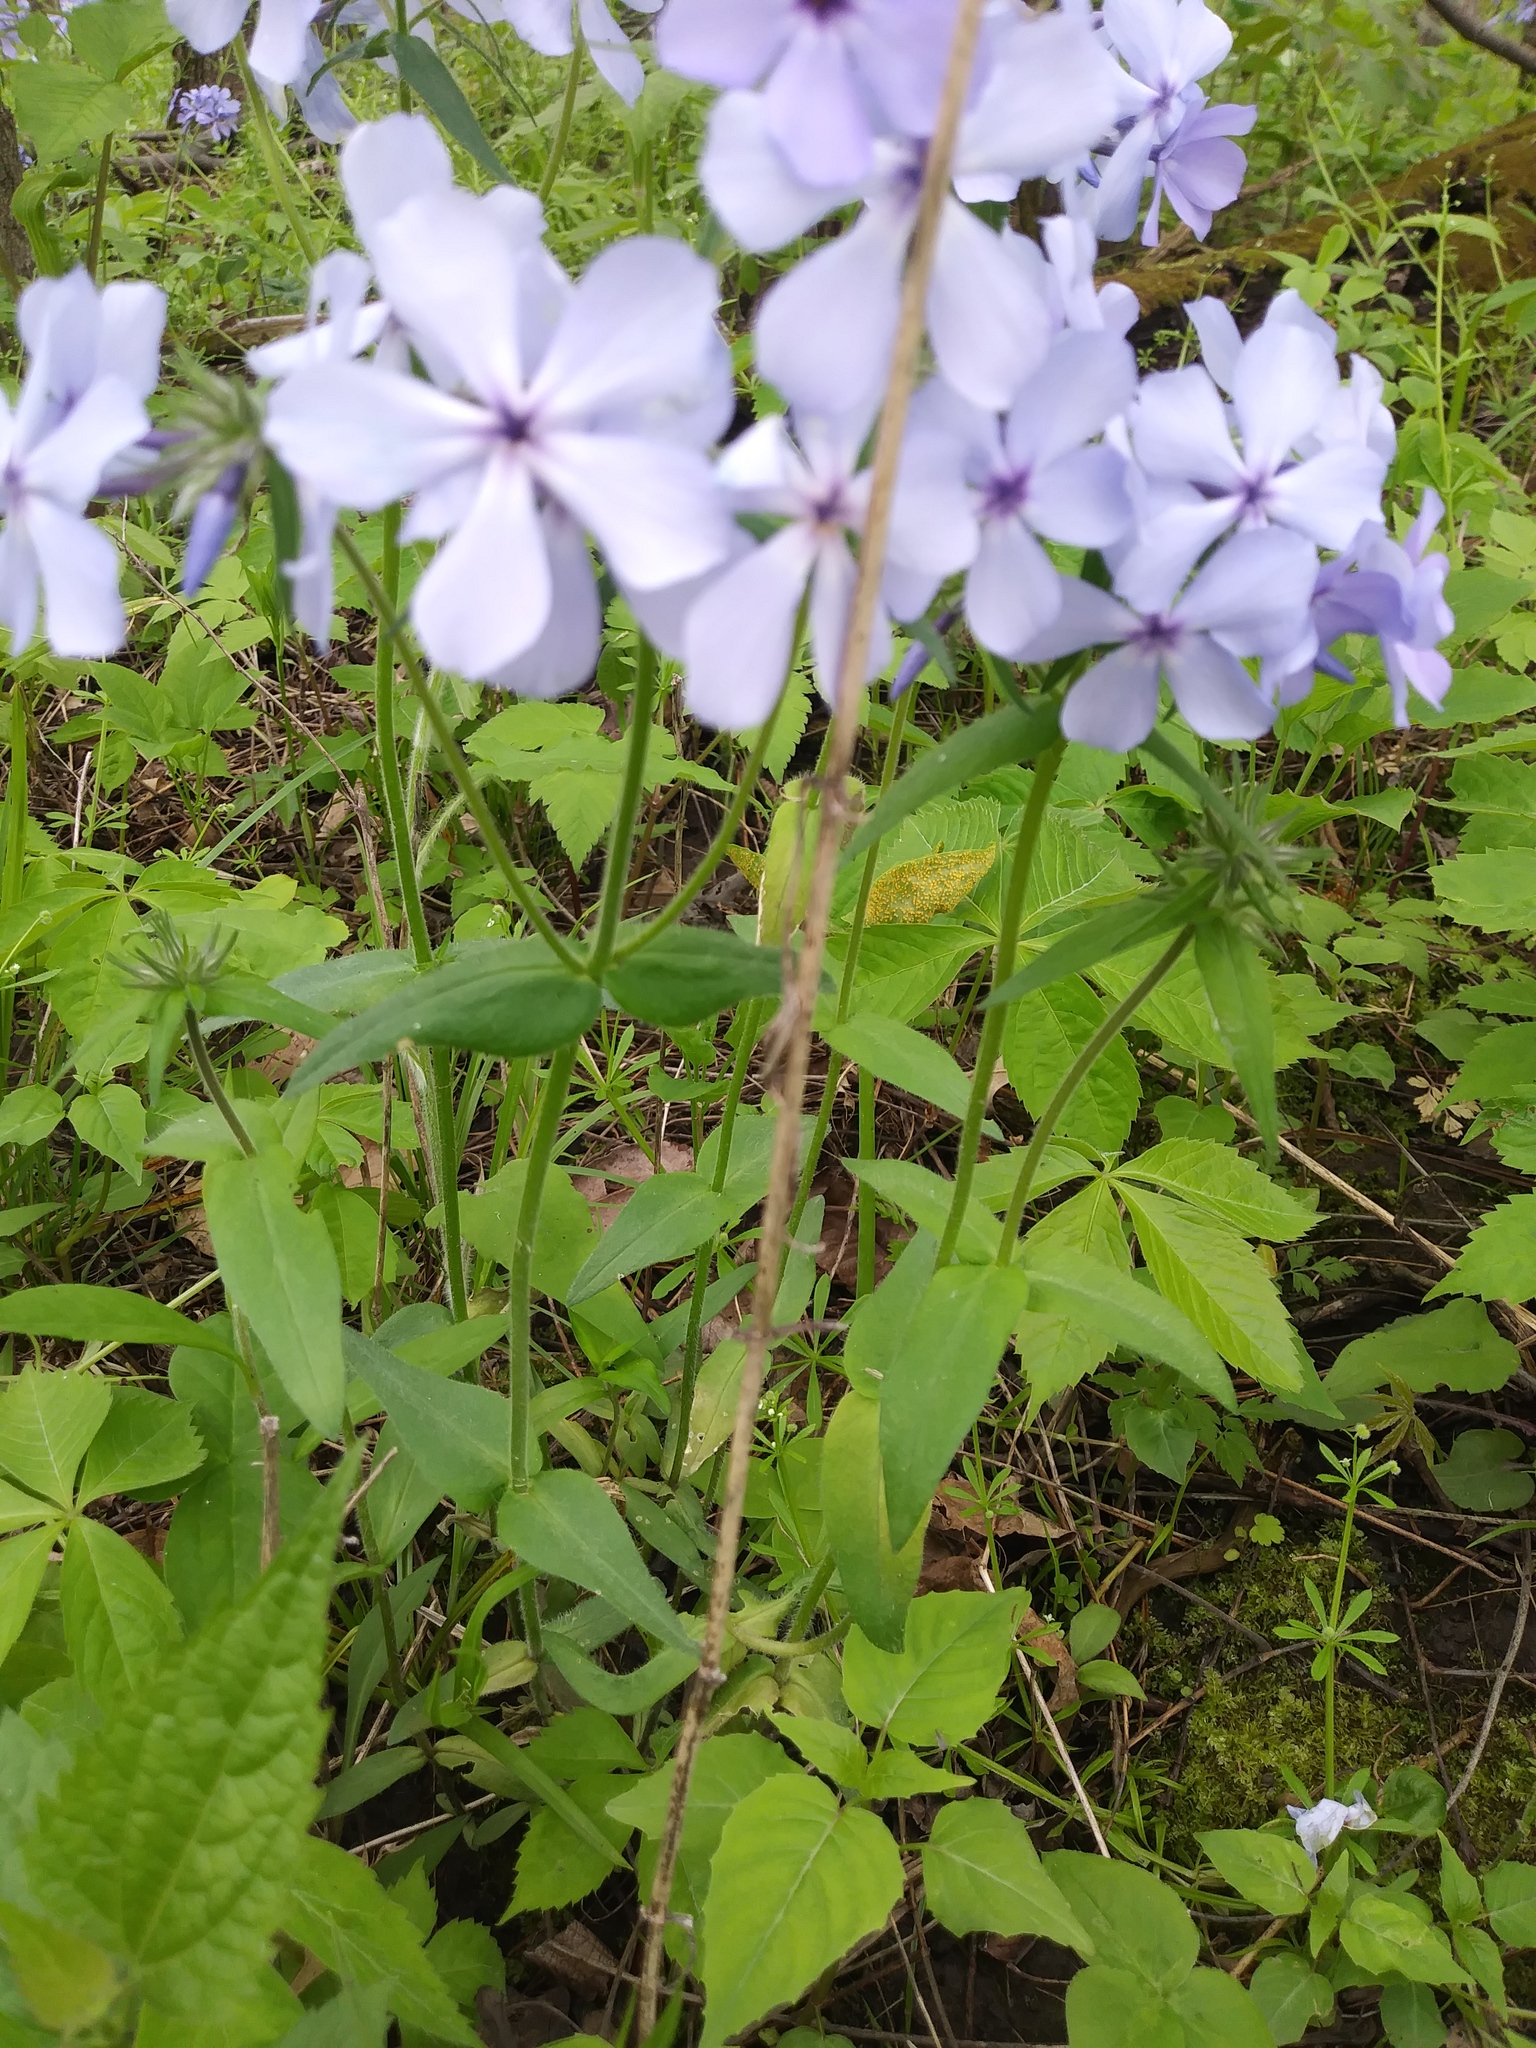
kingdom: Plantae
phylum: Tracheophyta
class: Magnoliopsida
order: Ericales
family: Polemoniaceae
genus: Phlox
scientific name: Phlox divaricata
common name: Blue phlox
